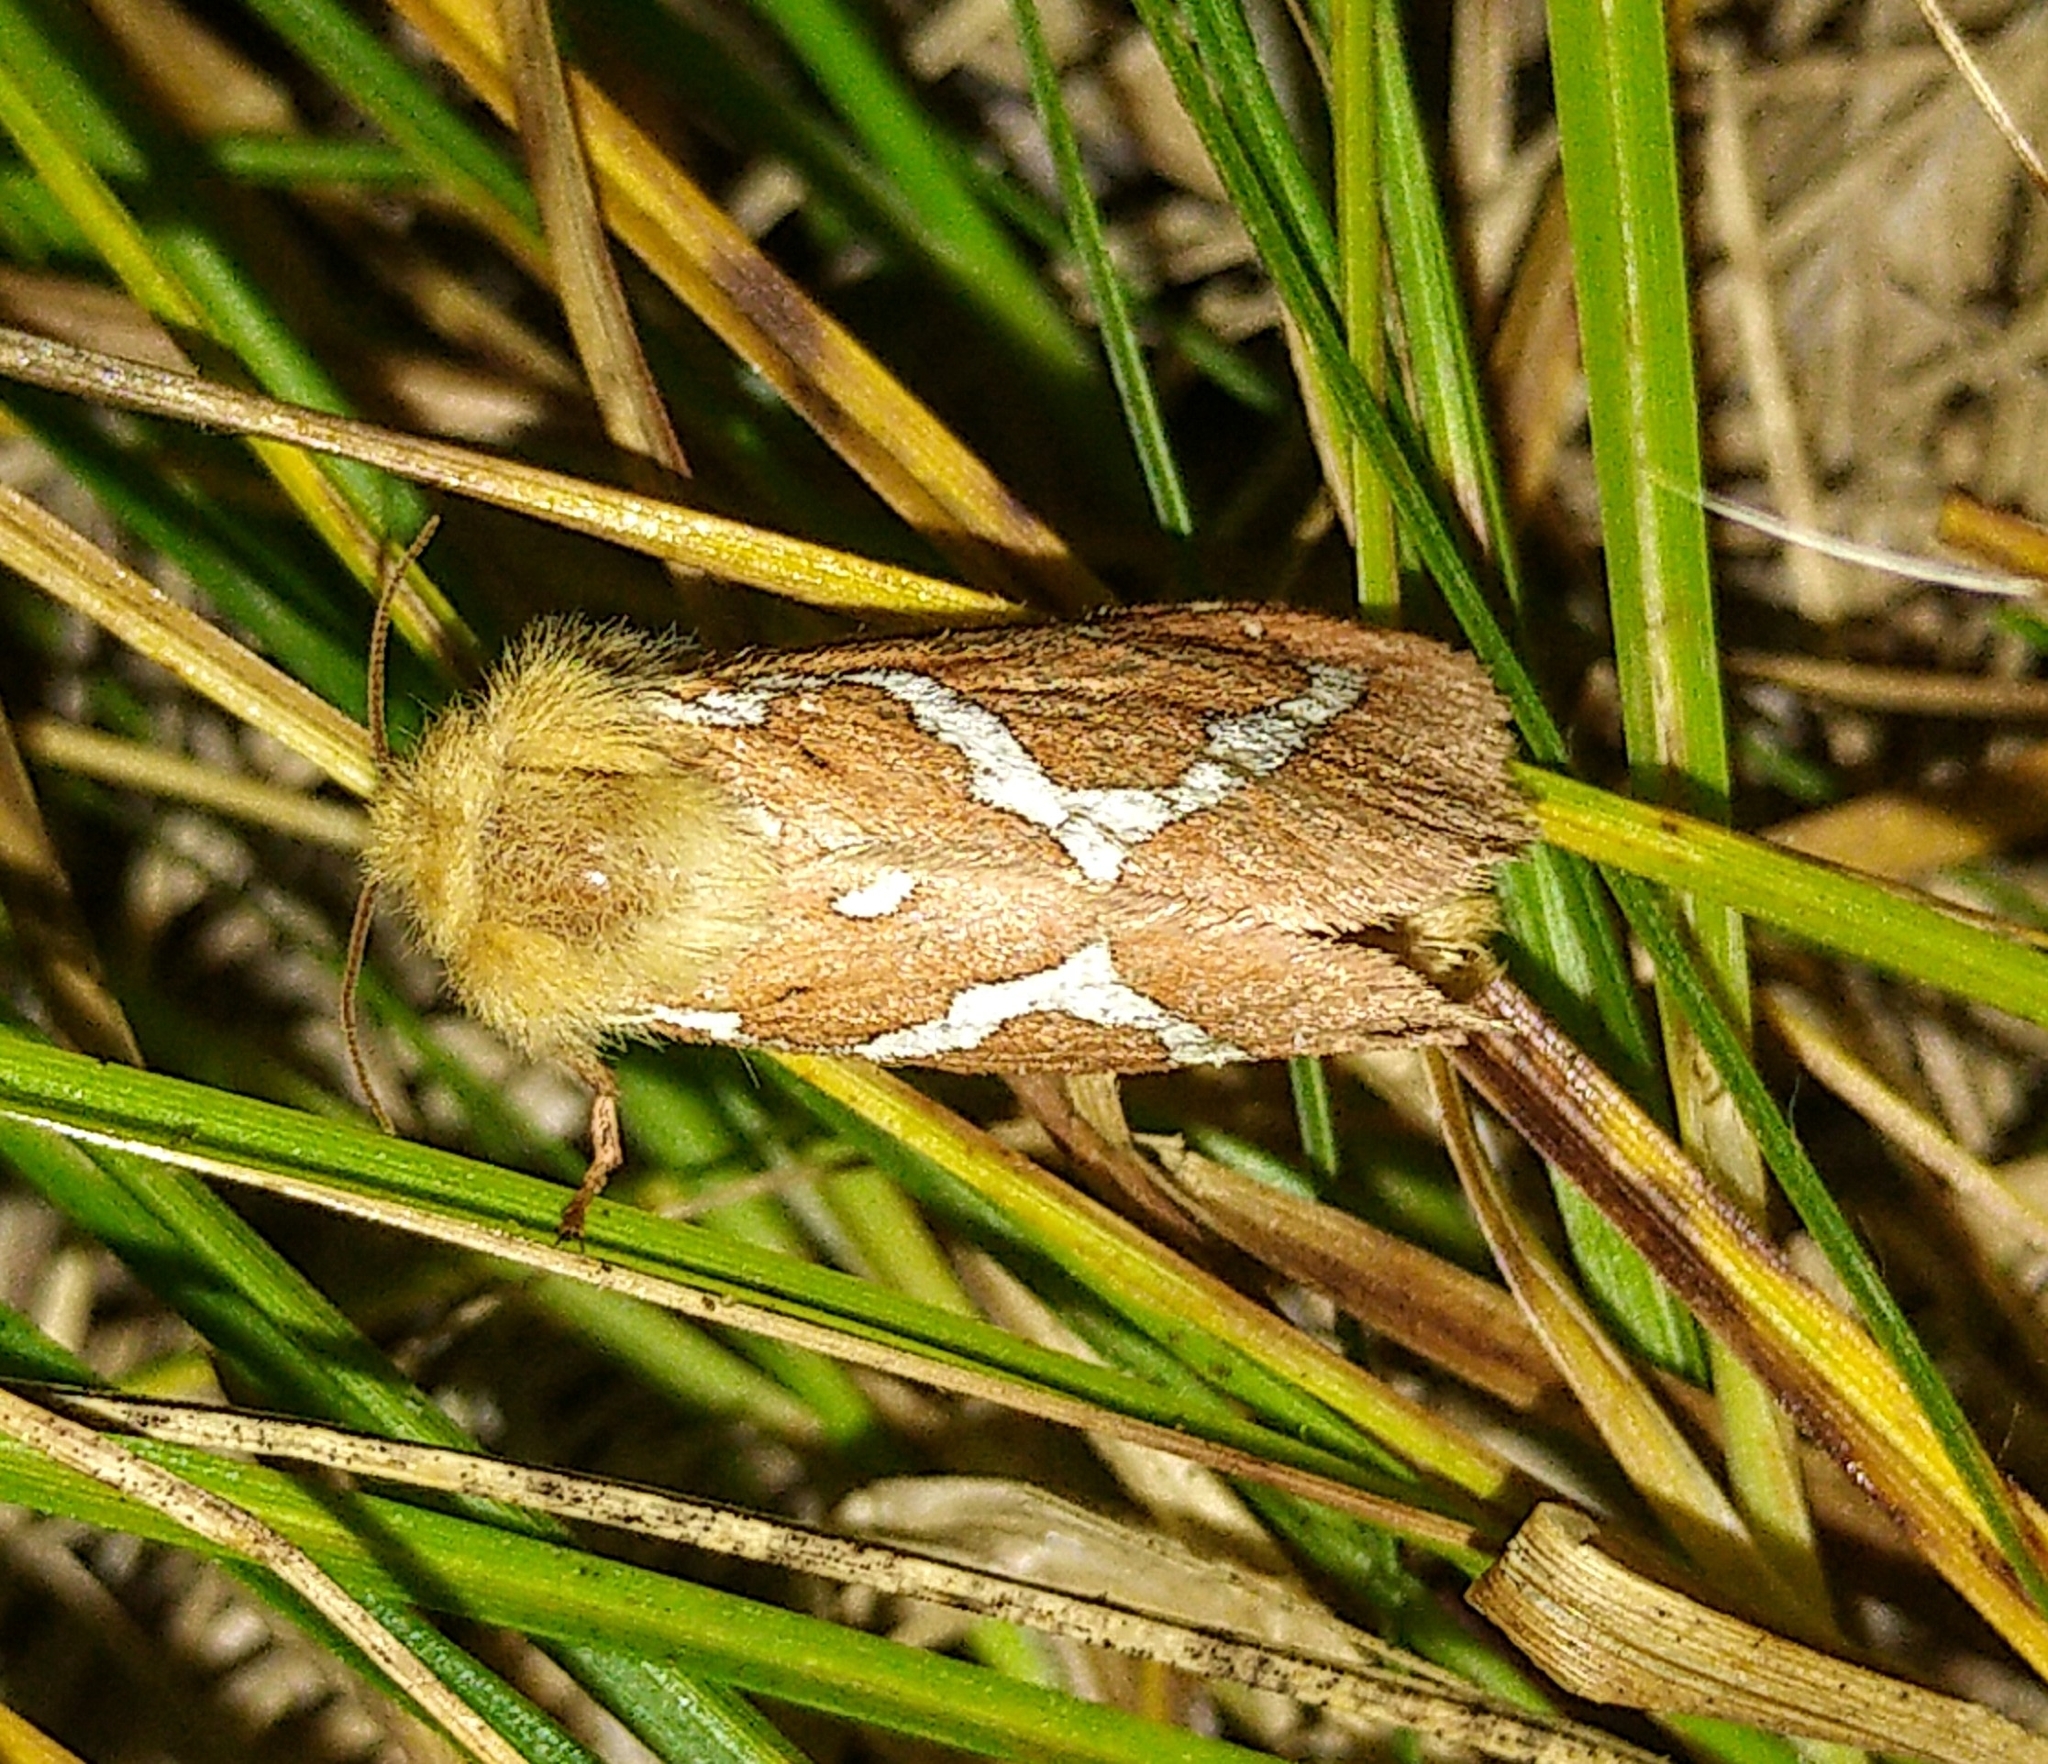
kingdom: Animalia
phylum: Arthropoda
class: Insecta
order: Lepidoptera
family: Hepialidae
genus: Gazoryctra
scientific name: Gazoryctra novigannus
